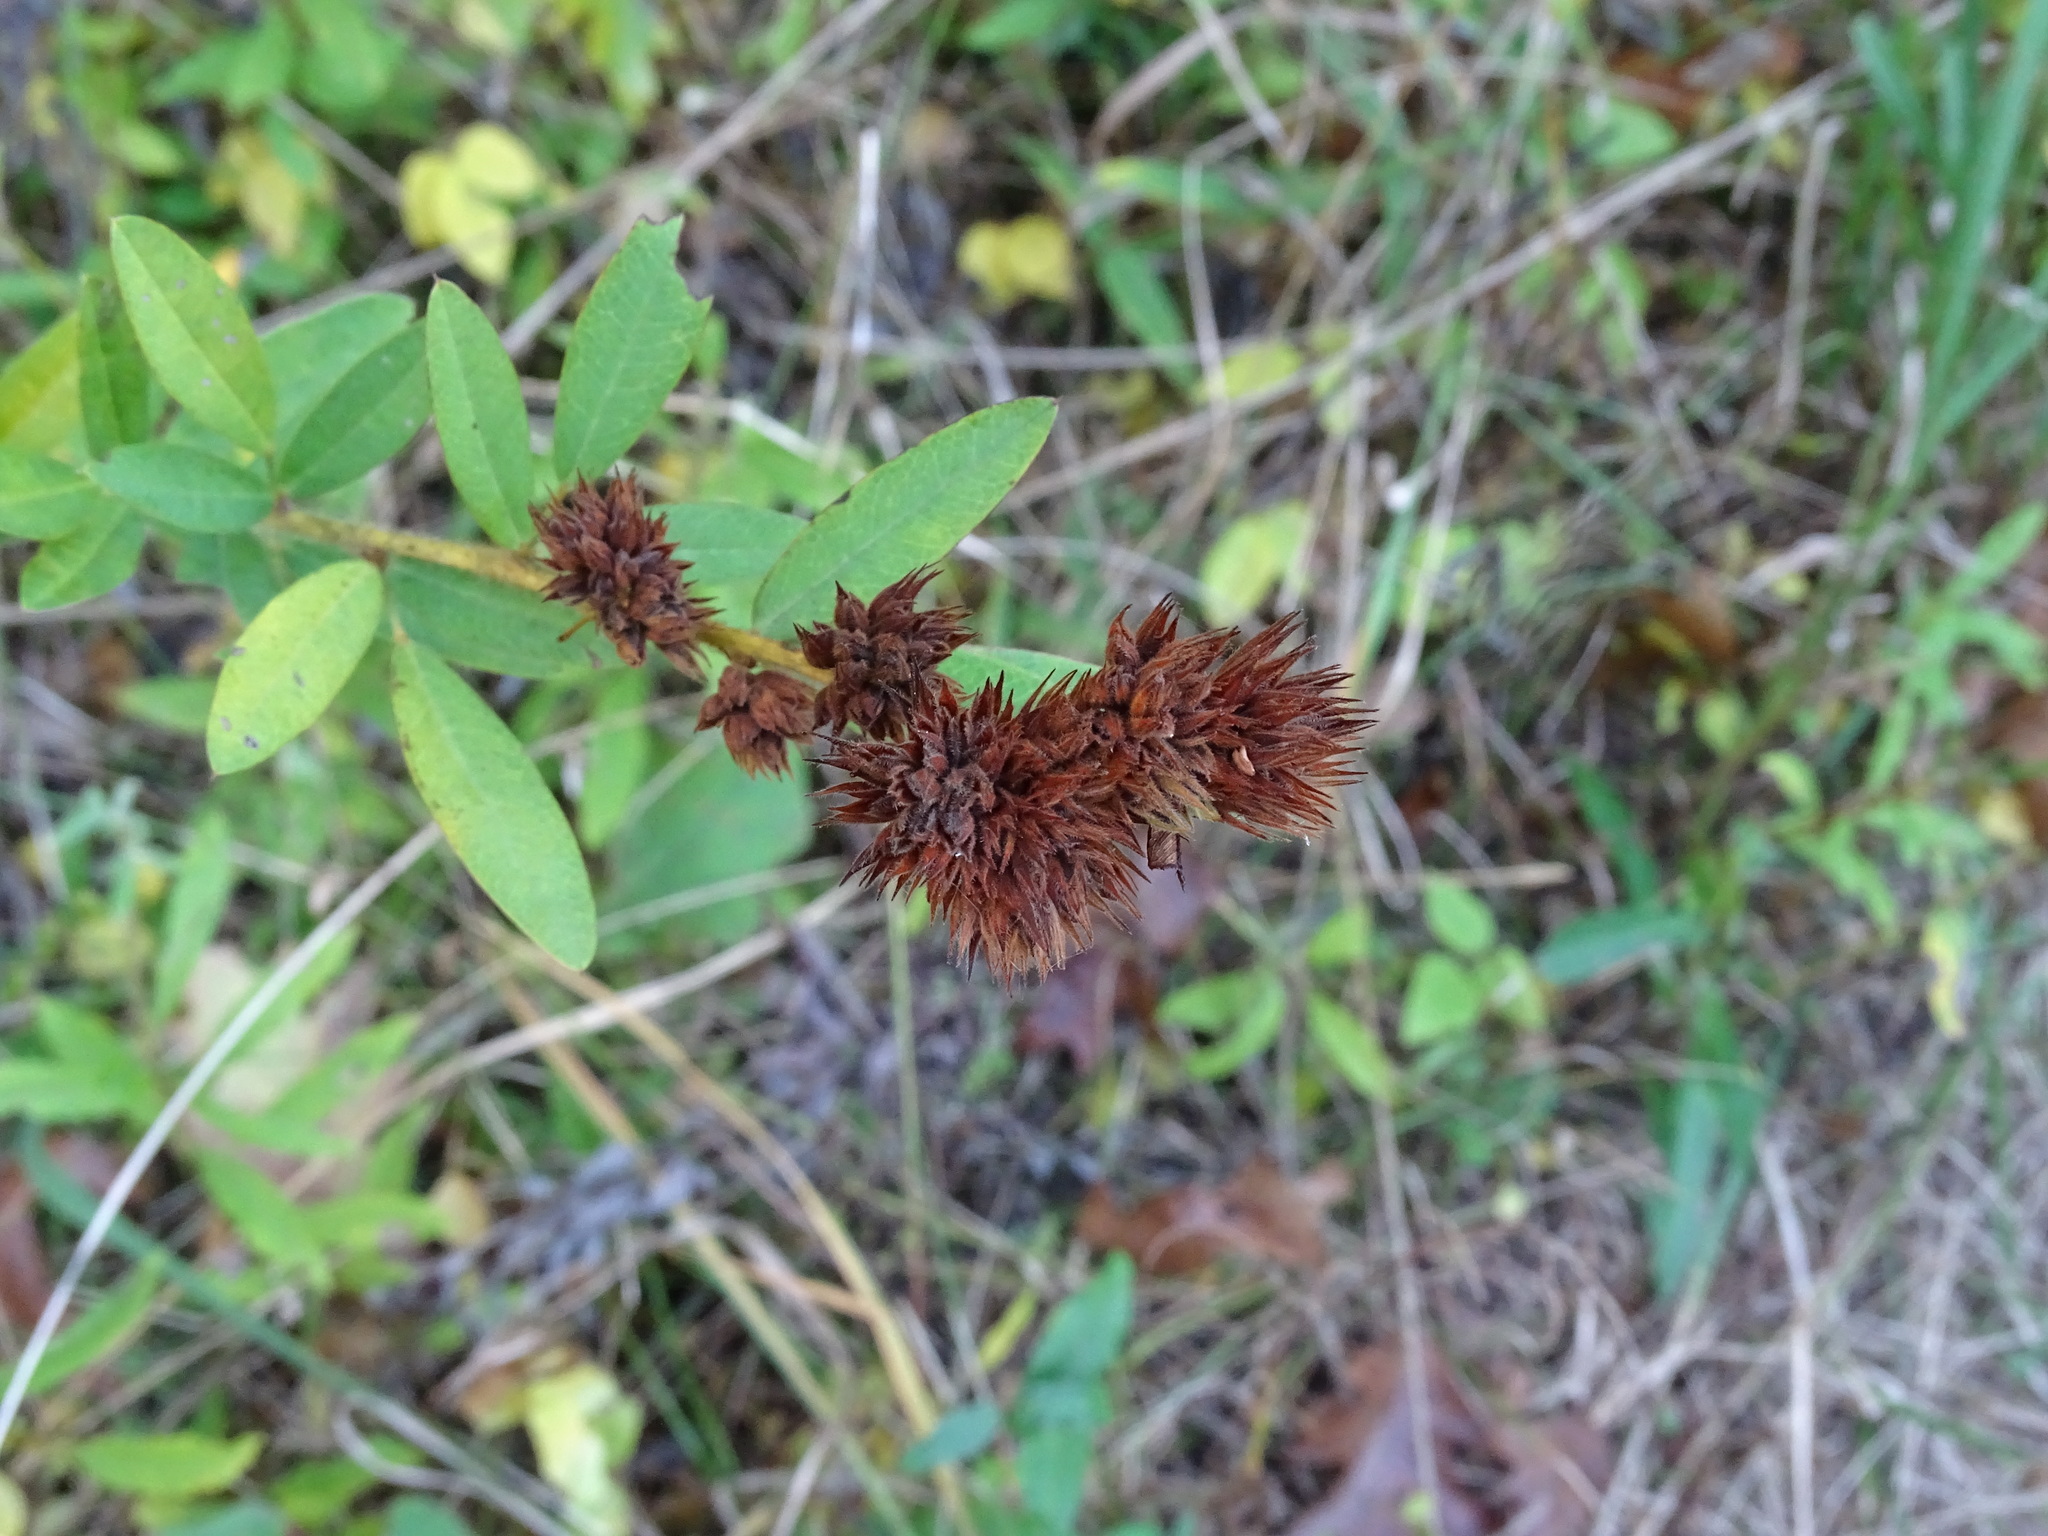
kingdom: Plantae
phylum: Tracheophyta
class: Magnoliopsida
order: Fabales
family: Fabaceae
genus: Lespedeza
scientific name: Lespedeza capitata
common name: Dusty clover
